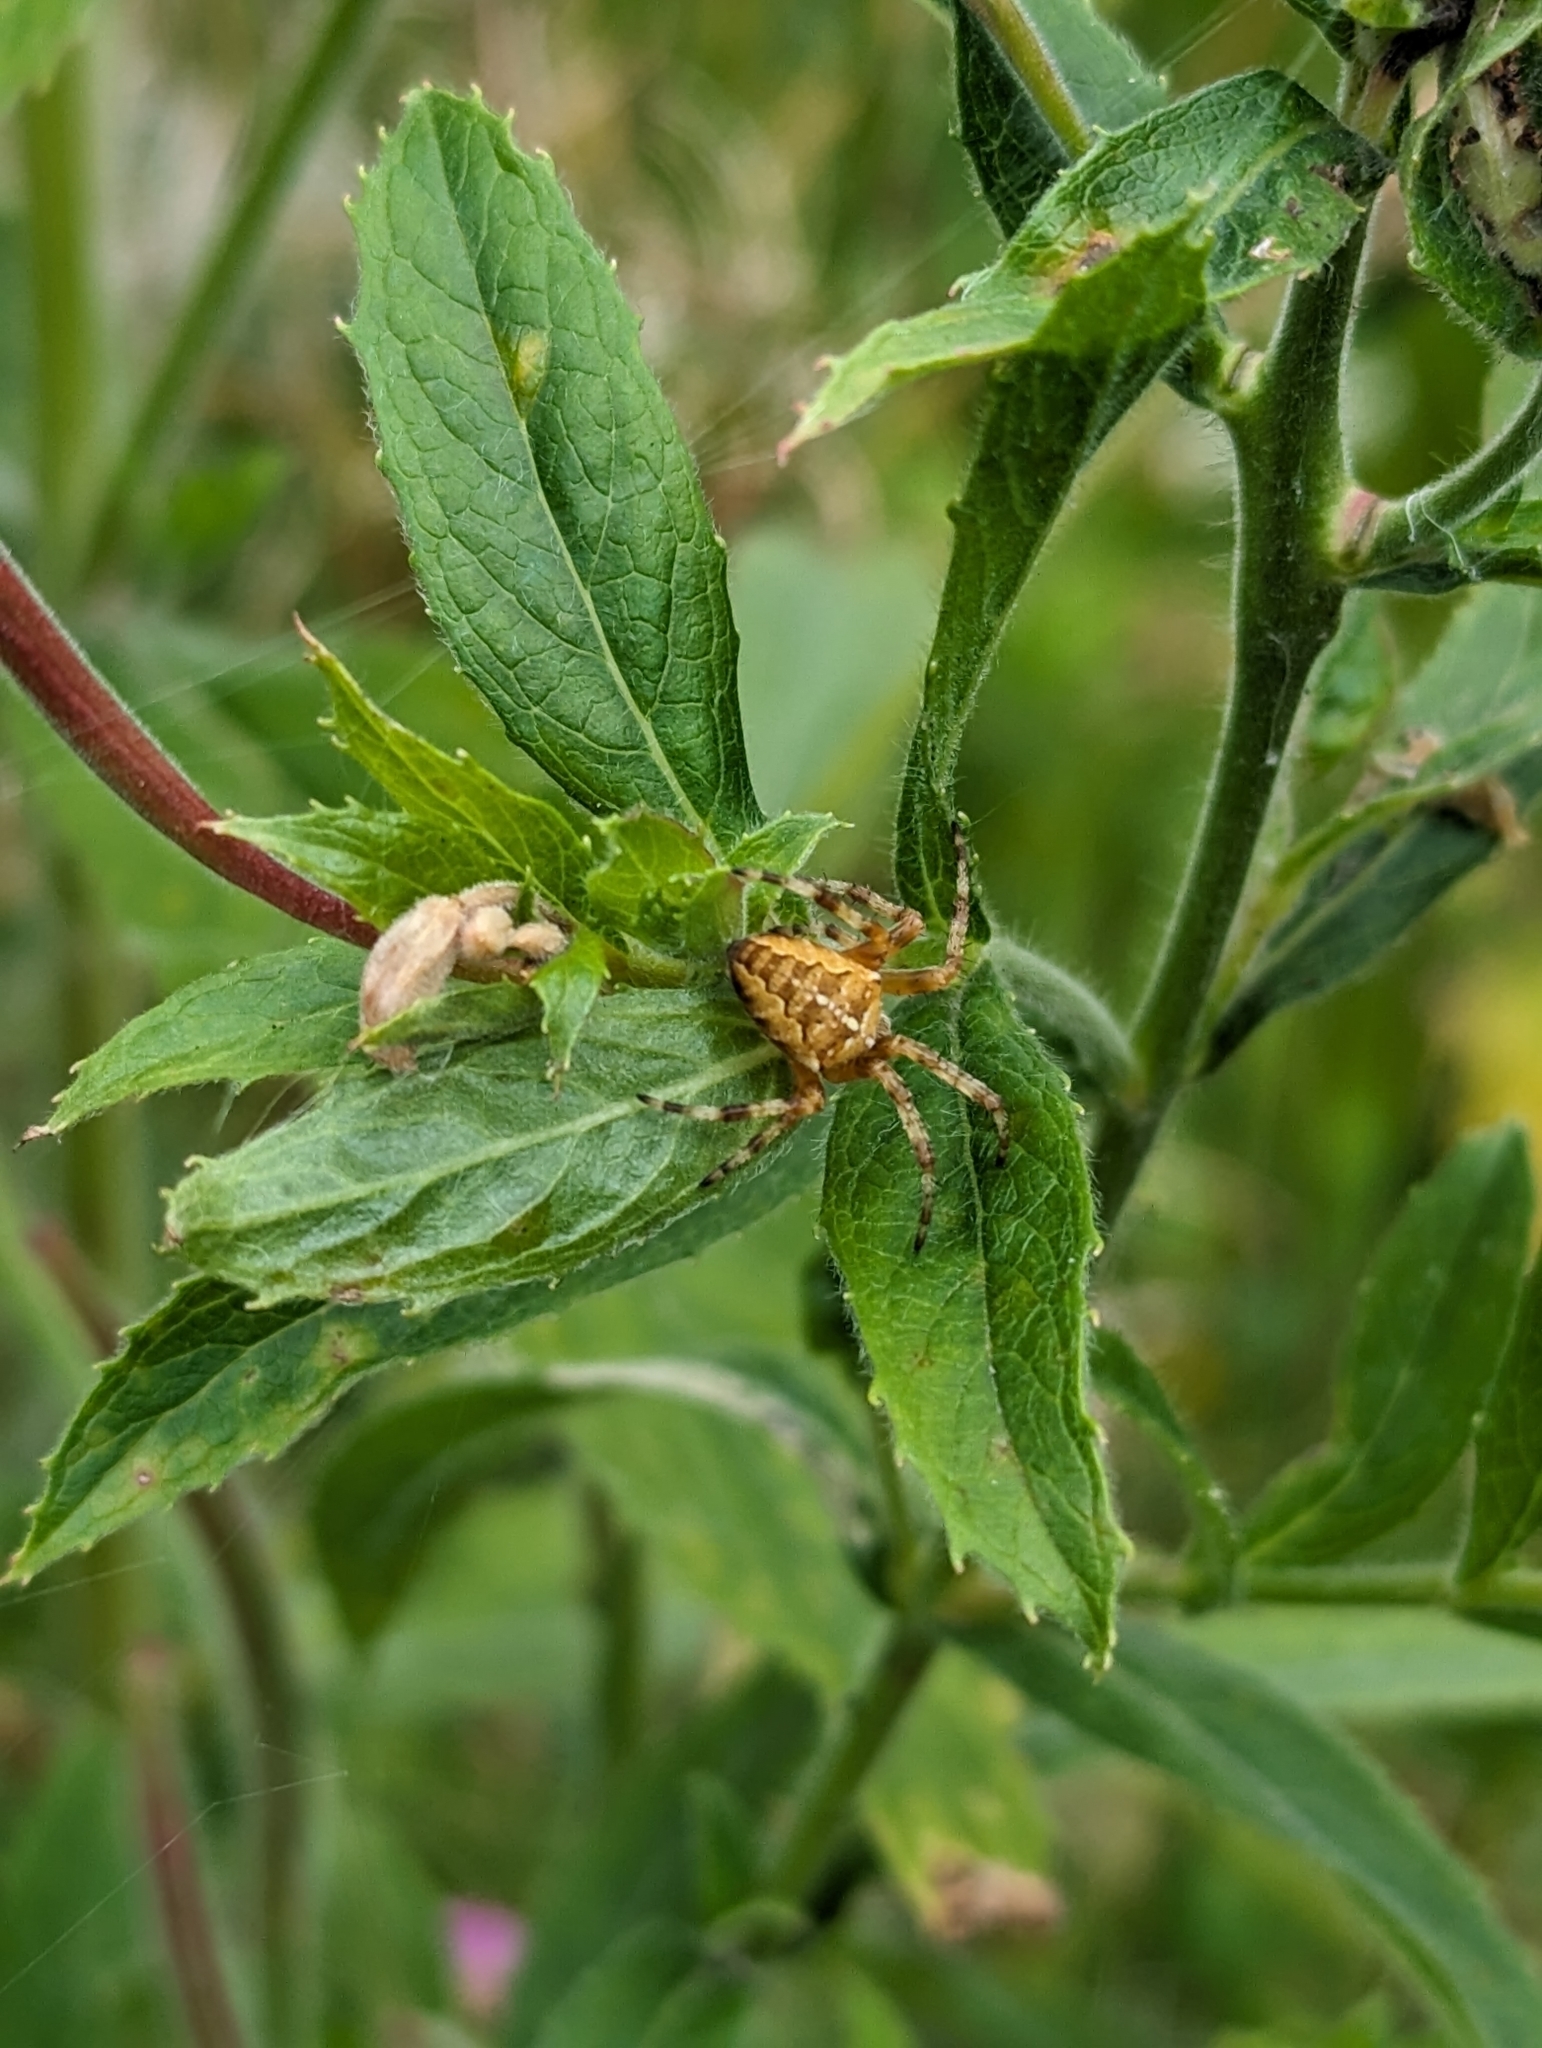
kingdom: Animalia
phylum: Arthropoda
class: Arachnida
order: Araneae
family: Araneidae
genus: Araneus
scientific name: Araneus diadematus
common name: Cross orbweaver
